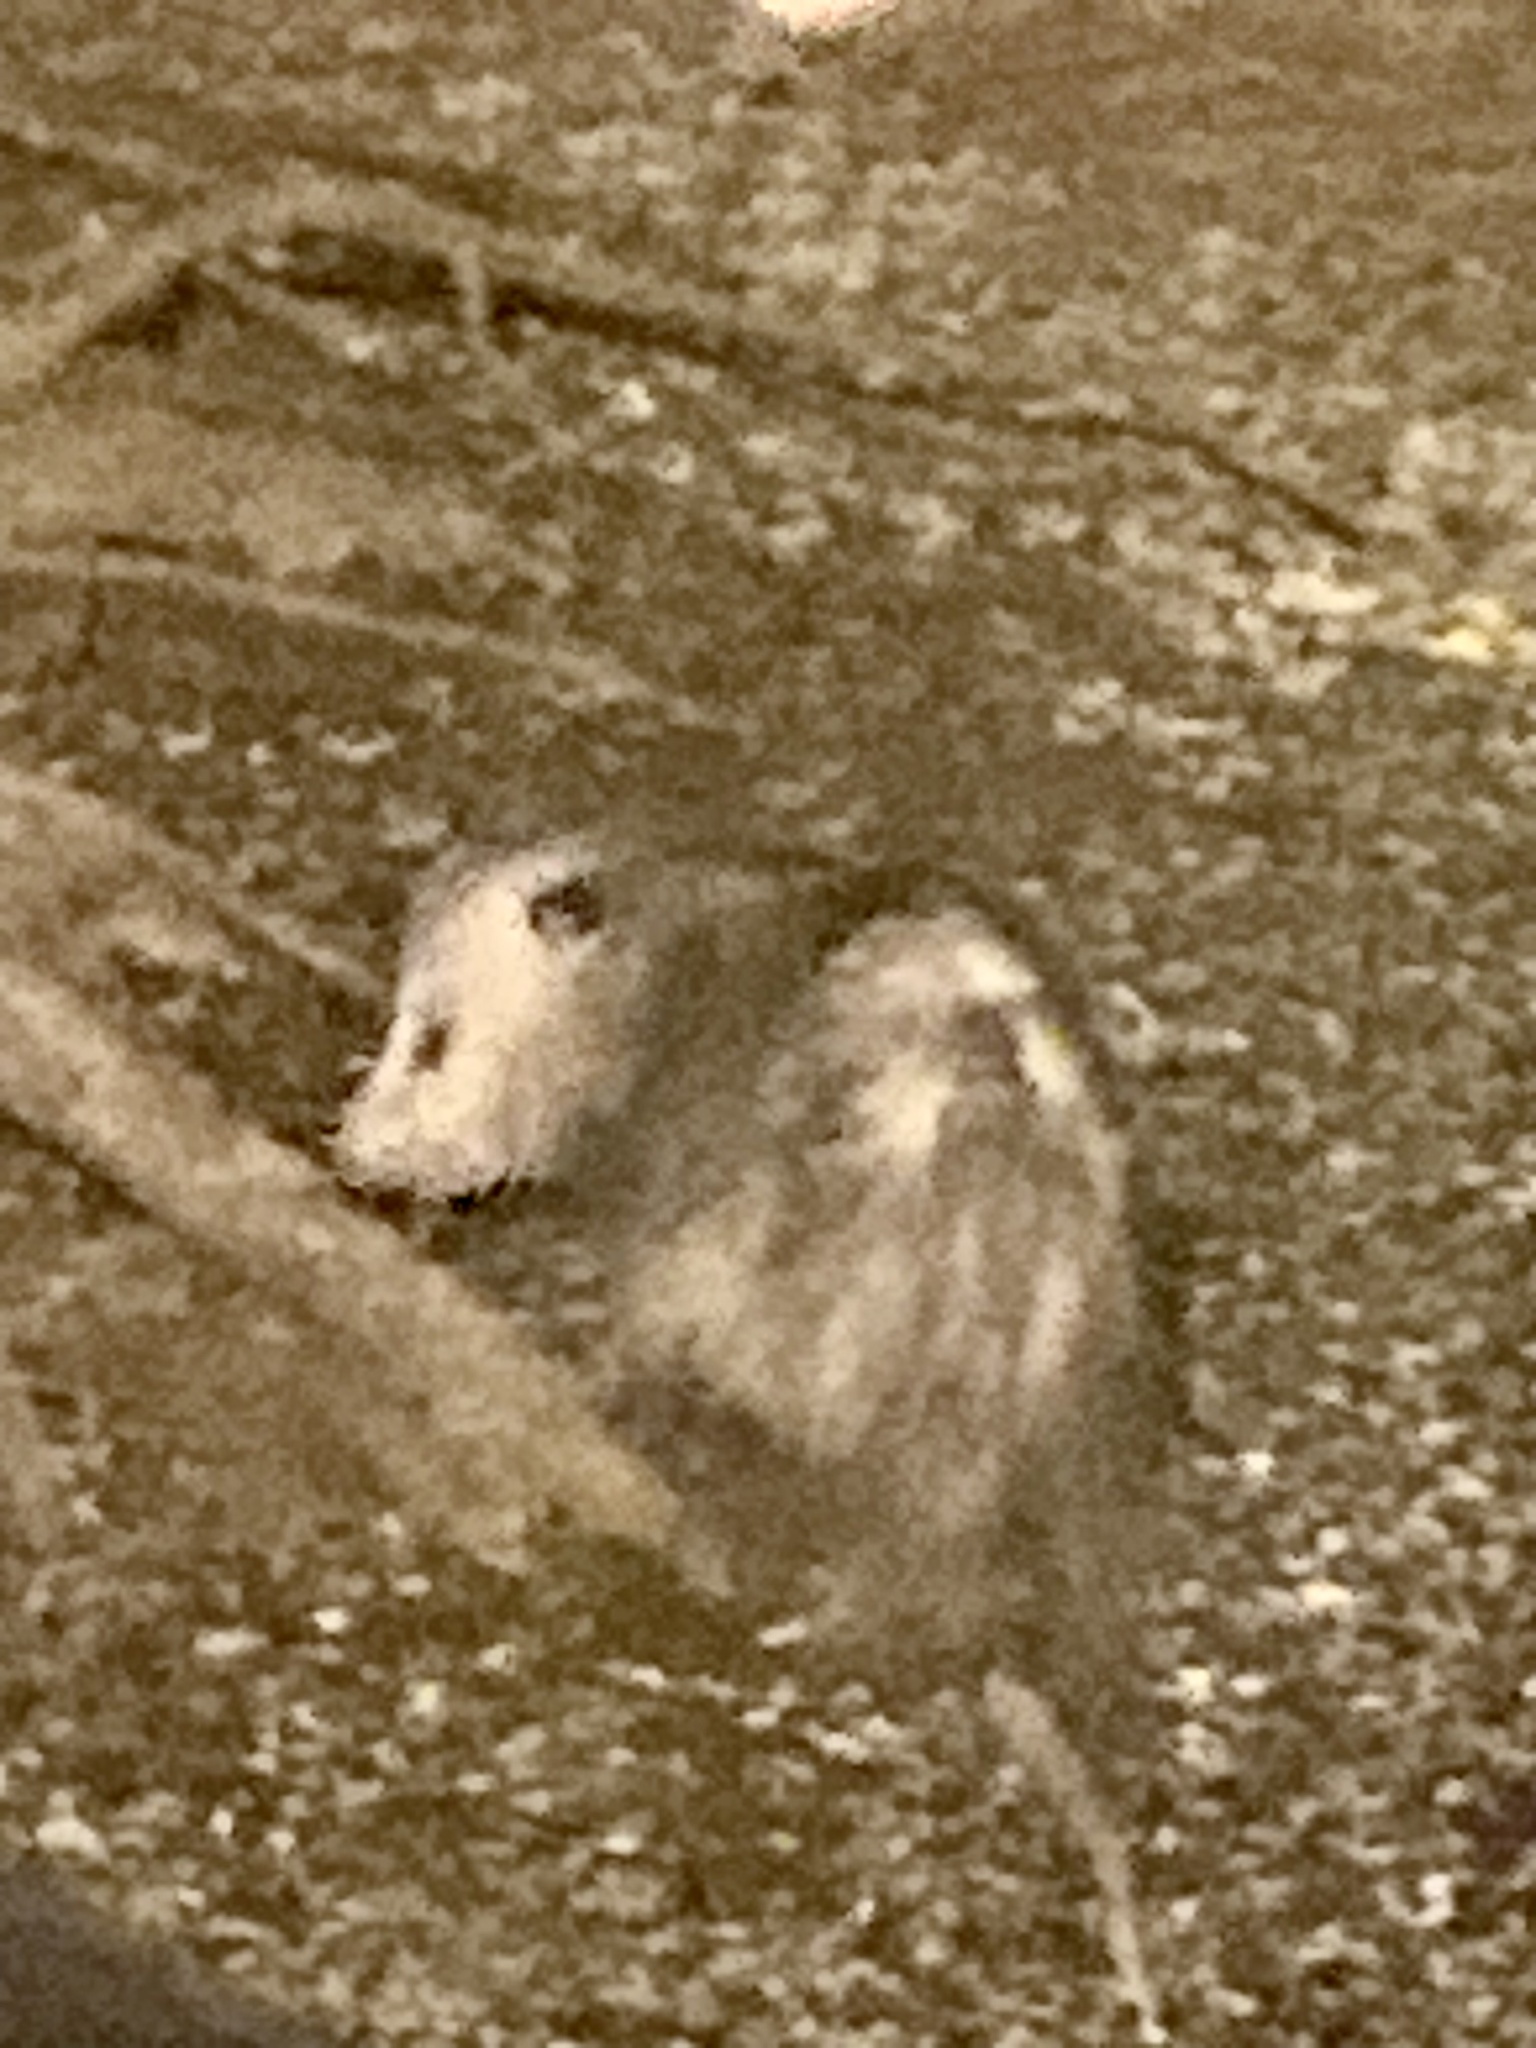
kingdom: Animalia
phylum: Chordata
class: Mammalia
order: Didelphimorphia
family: Didelphidae
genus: Didelphis
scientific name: Didelphis virginiana
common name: Virginia opossum
